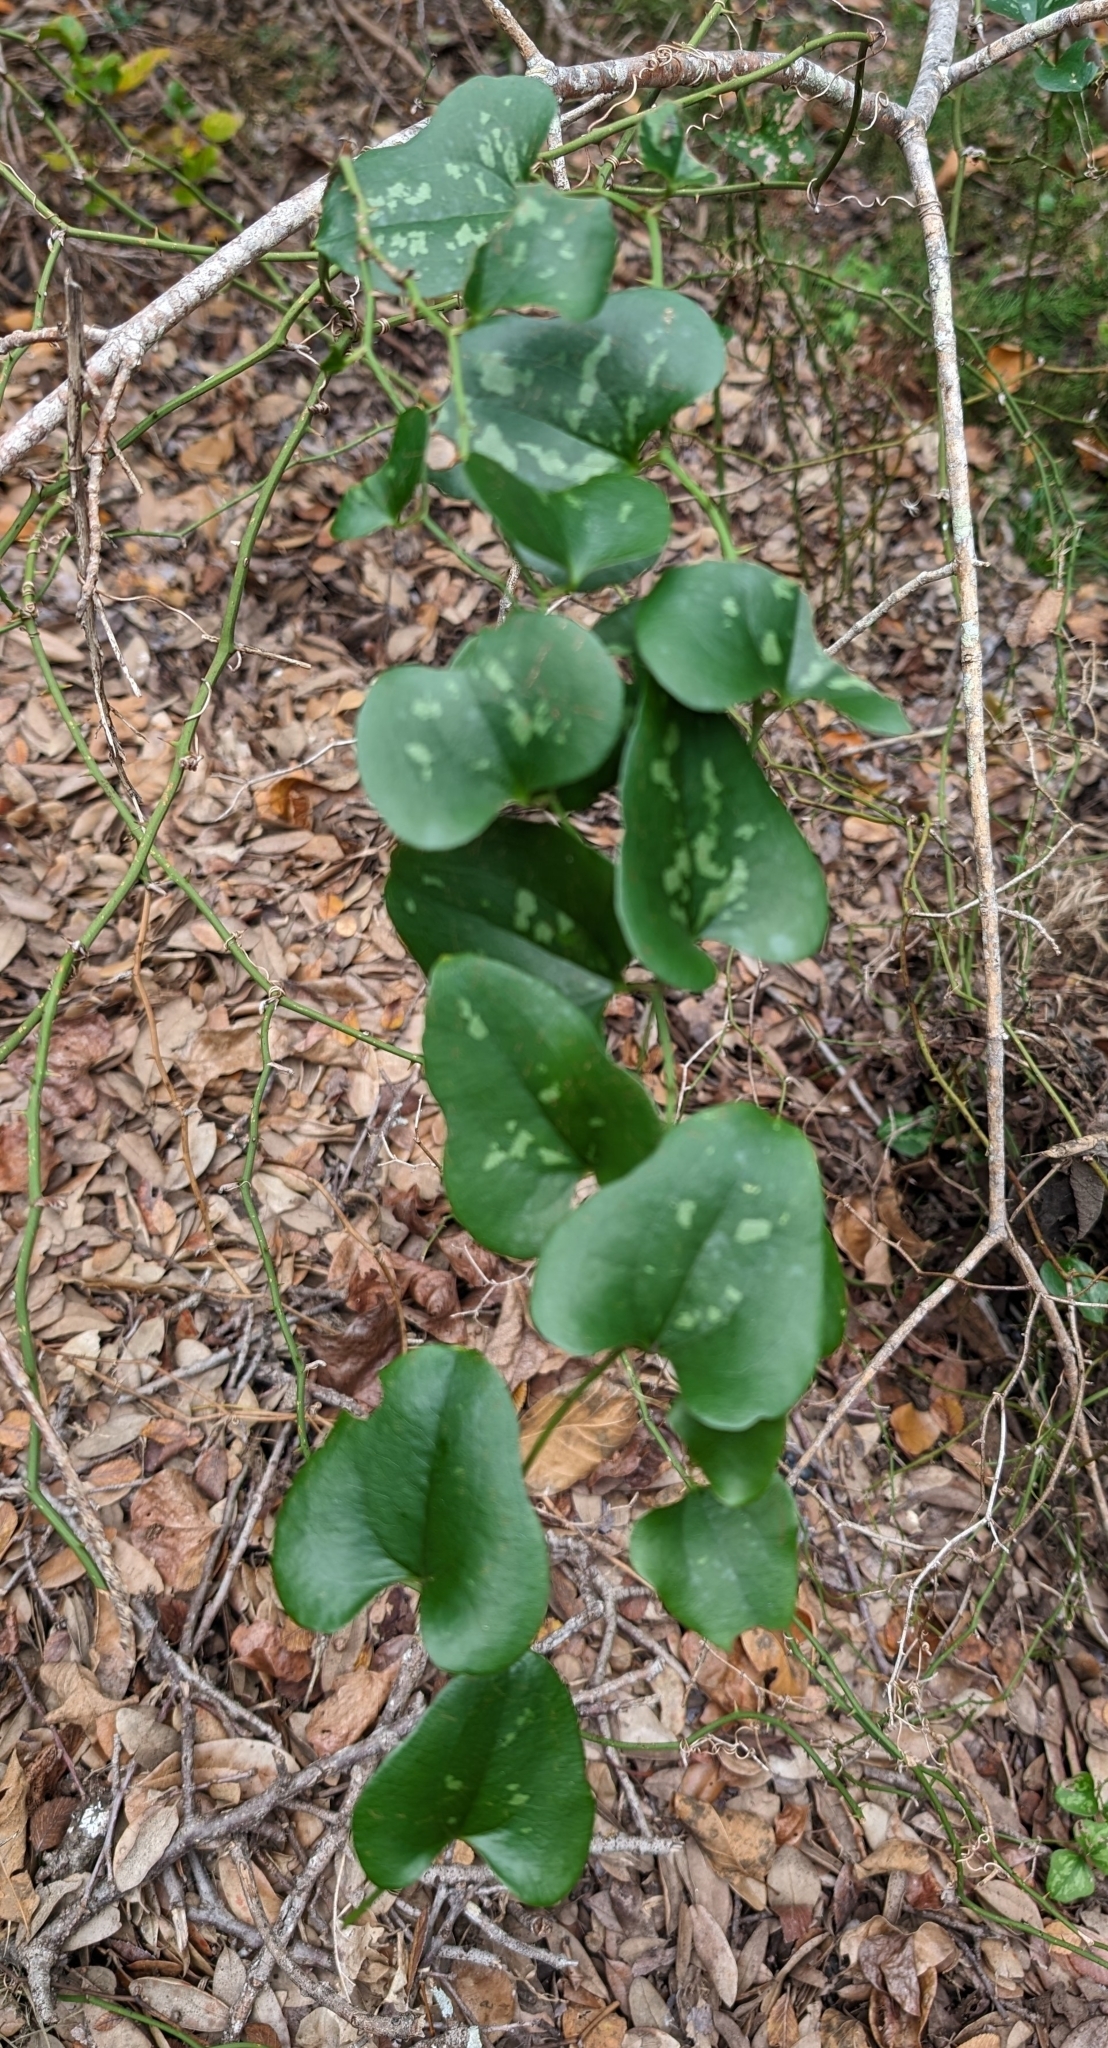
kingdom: Plantae
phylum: Tracheophyta
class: Liliopsida
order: Liliales
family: Smilacaceae
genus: Smilax
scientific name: Smilax bona-nox
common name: Catbrier
